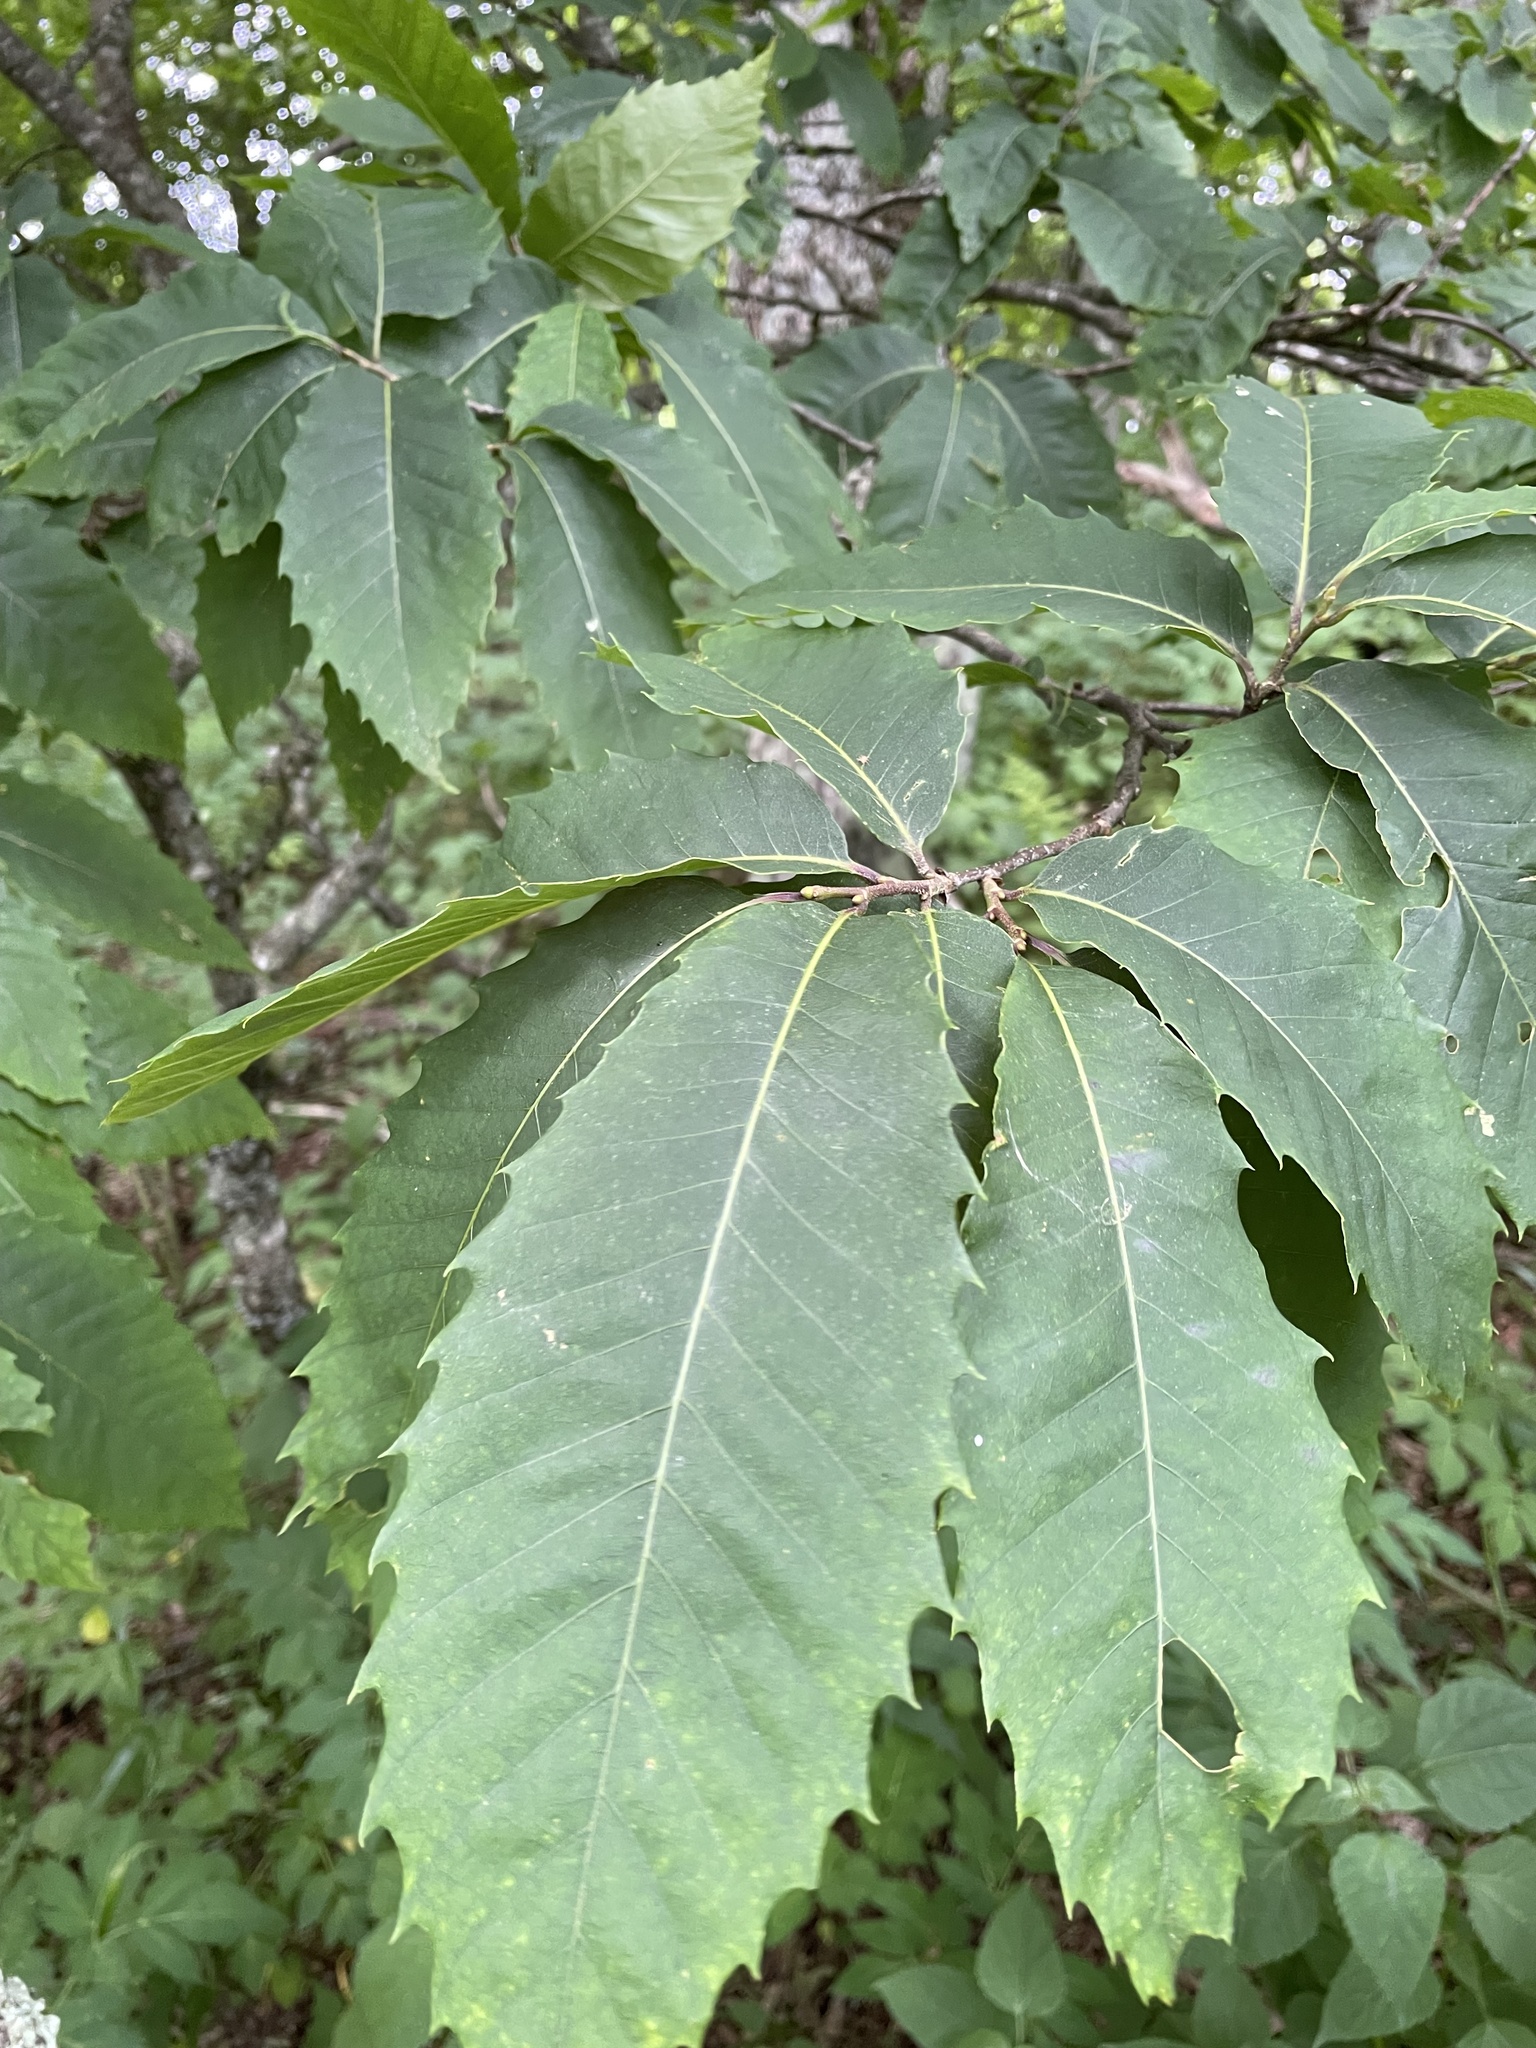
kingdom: Plantae
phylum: Tracheophyta
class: Magnoliopsida
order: Fagales
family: Fagaceae
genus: Castanea
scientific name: Castanea dentata
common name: American chestnut
